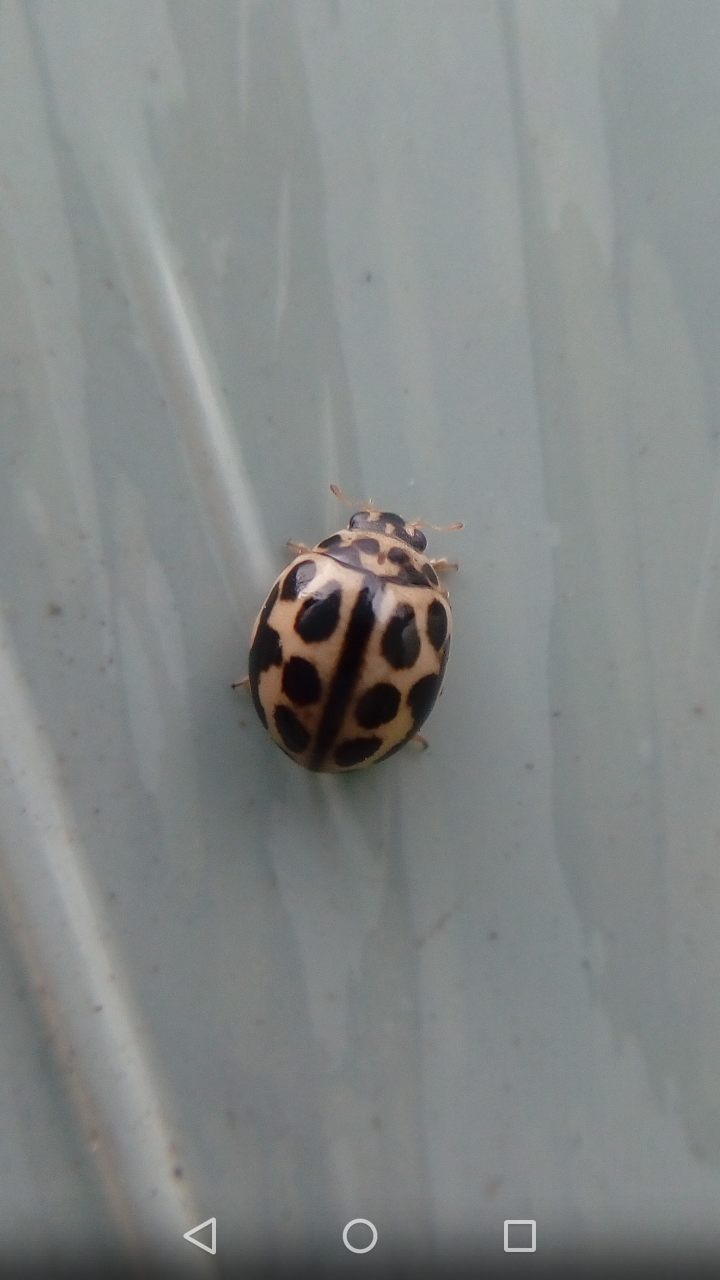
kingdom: Animalia
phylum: Arthropoda
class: Insecta
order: Coleoptera
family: Coccinellidae
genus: Tytthaspis
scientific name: Tytthaspis sedecimpunctata
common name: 16-spot ladybird
